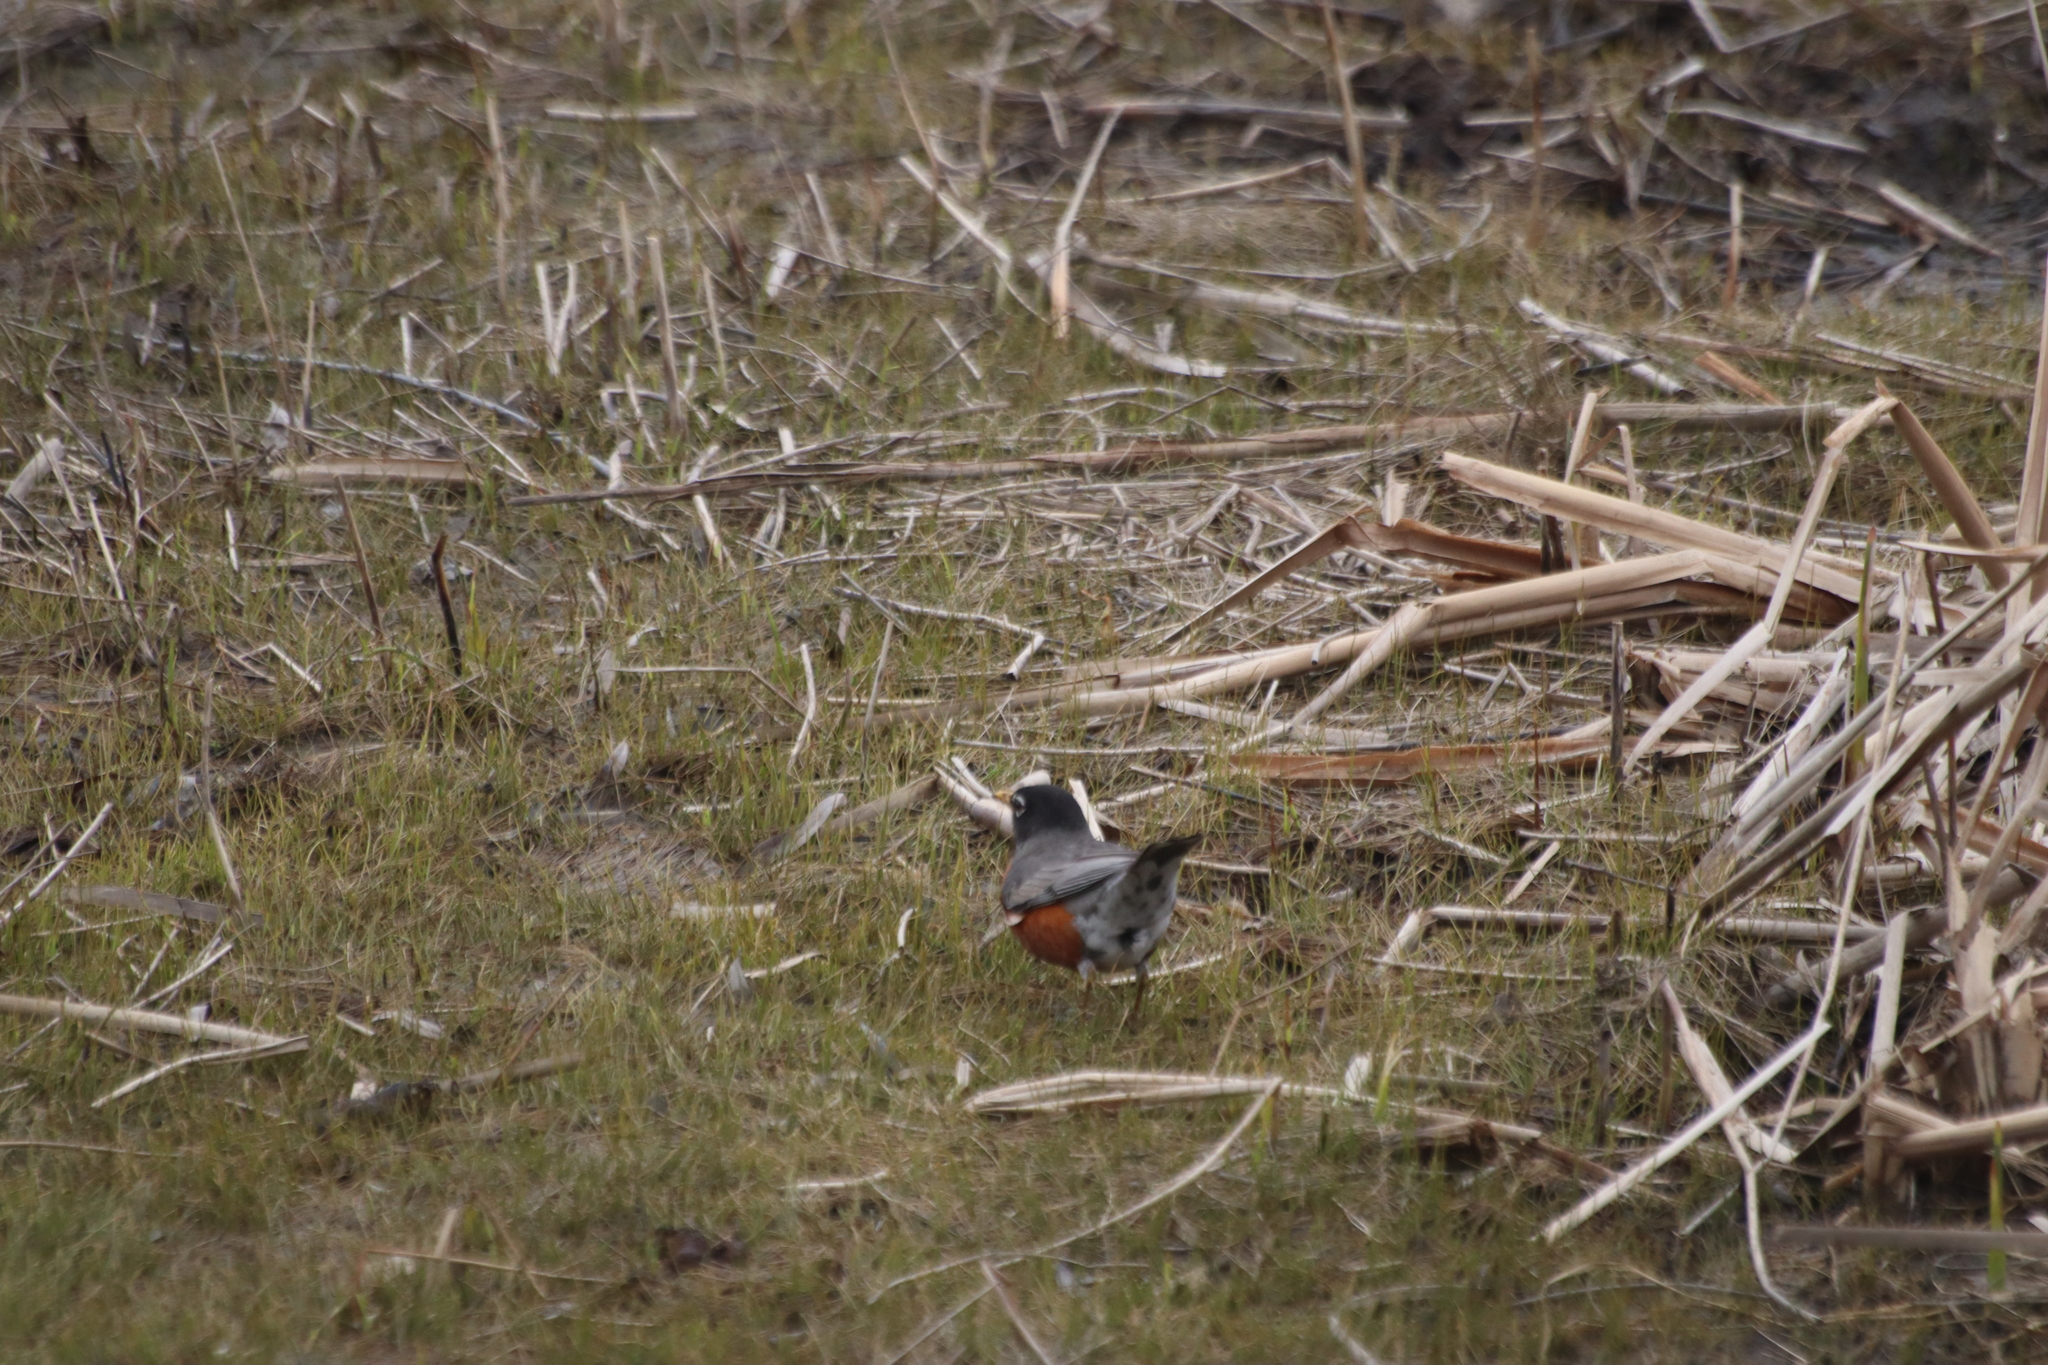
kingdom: Animalia
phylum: Chordata
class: Aves
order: Passeriformes
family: Turdidae
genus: Turdus
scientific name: Turdus migratorius
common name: American robin
